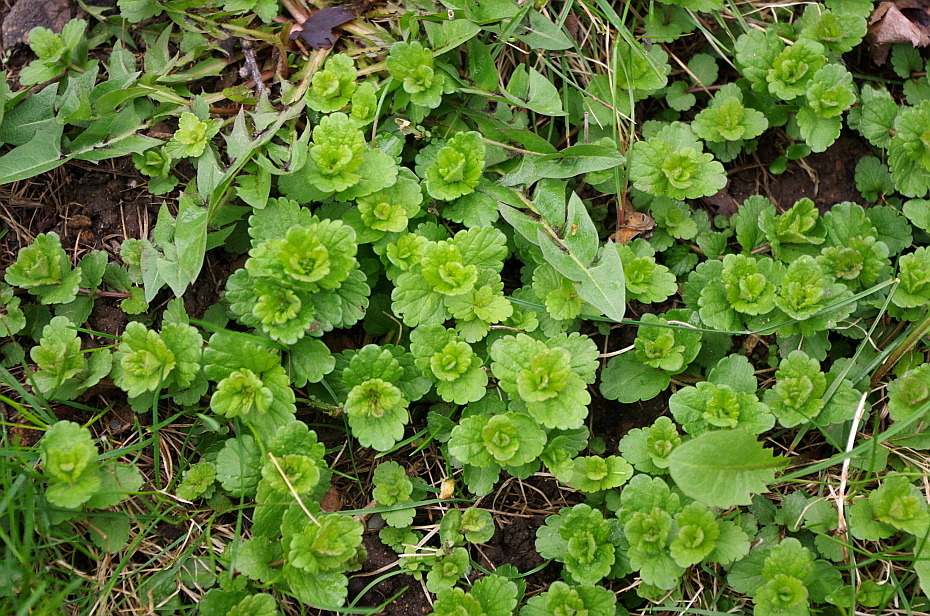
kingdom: Plantae
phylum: Tracheophyta
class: Magnoliopsida
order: Lamiales
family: Plantaginaceae
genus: Veronica
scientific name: Veronica chamaedrys
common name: Germander speedwell
